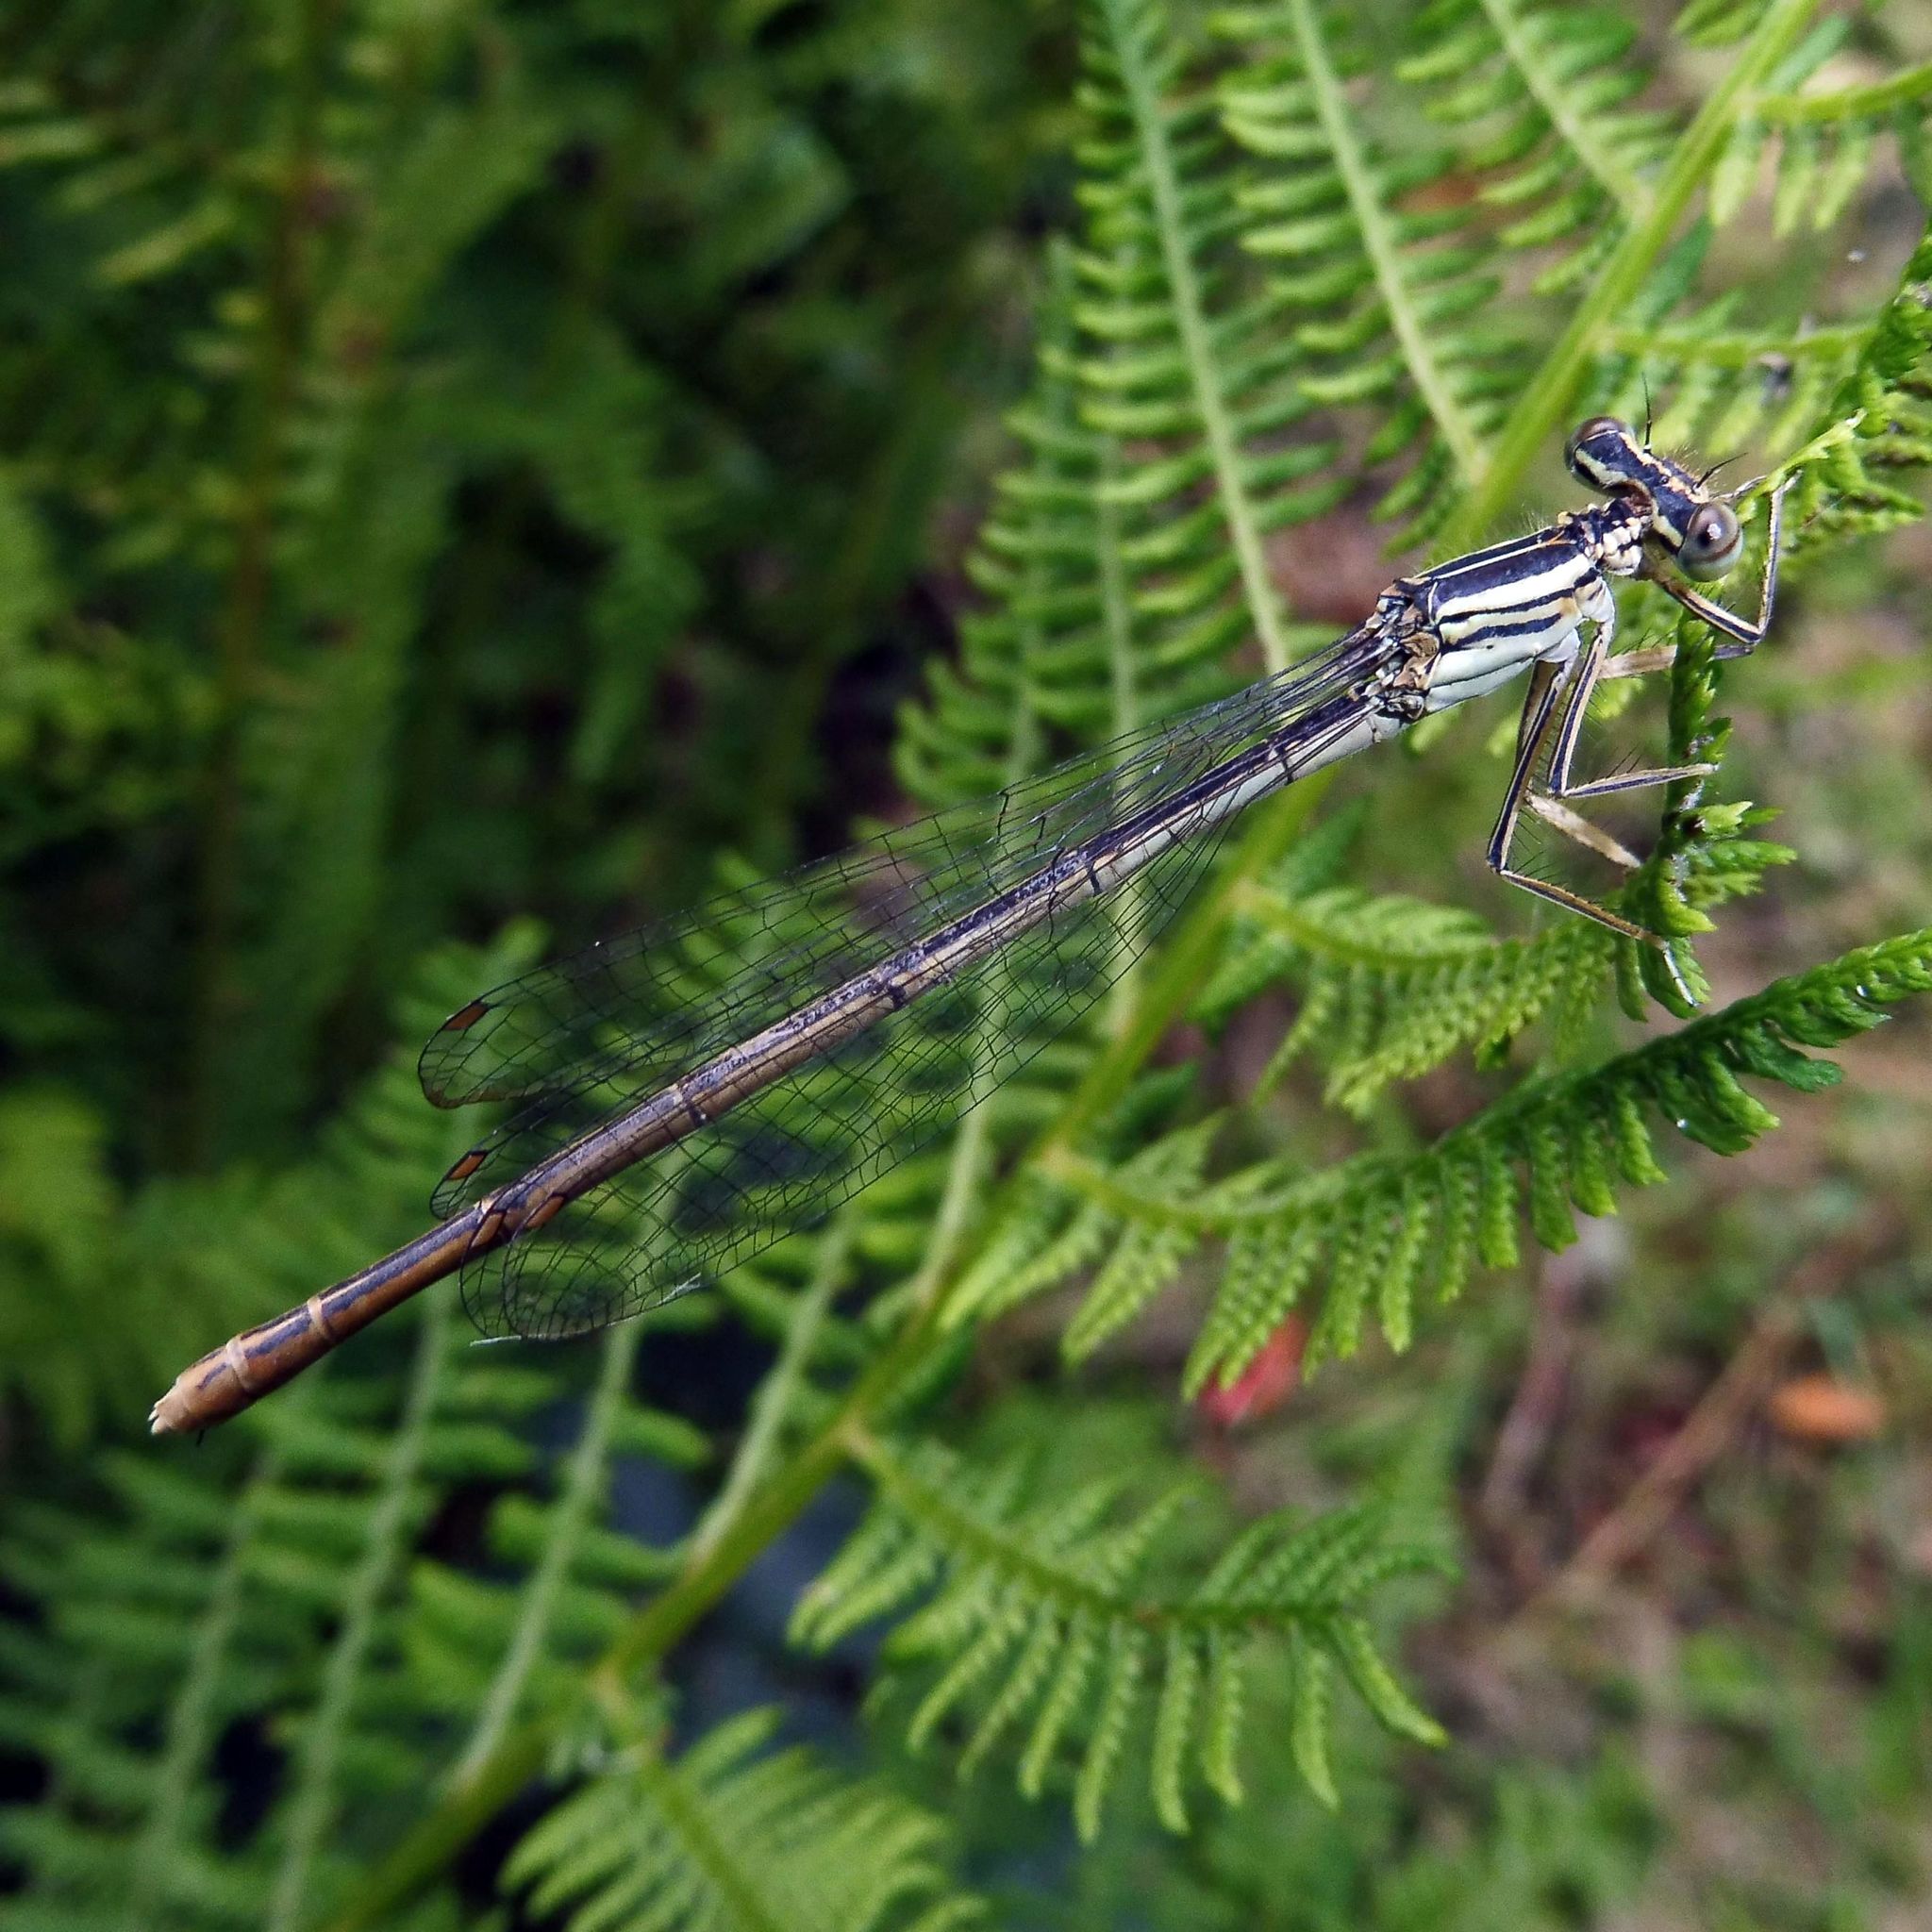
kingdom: Animalia
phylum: Arthropoda
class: Insecta
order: Odonata
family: Platycnemididae
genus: Platycnemis
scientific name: Platycnemis pennipes
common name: White-legged damselfly
